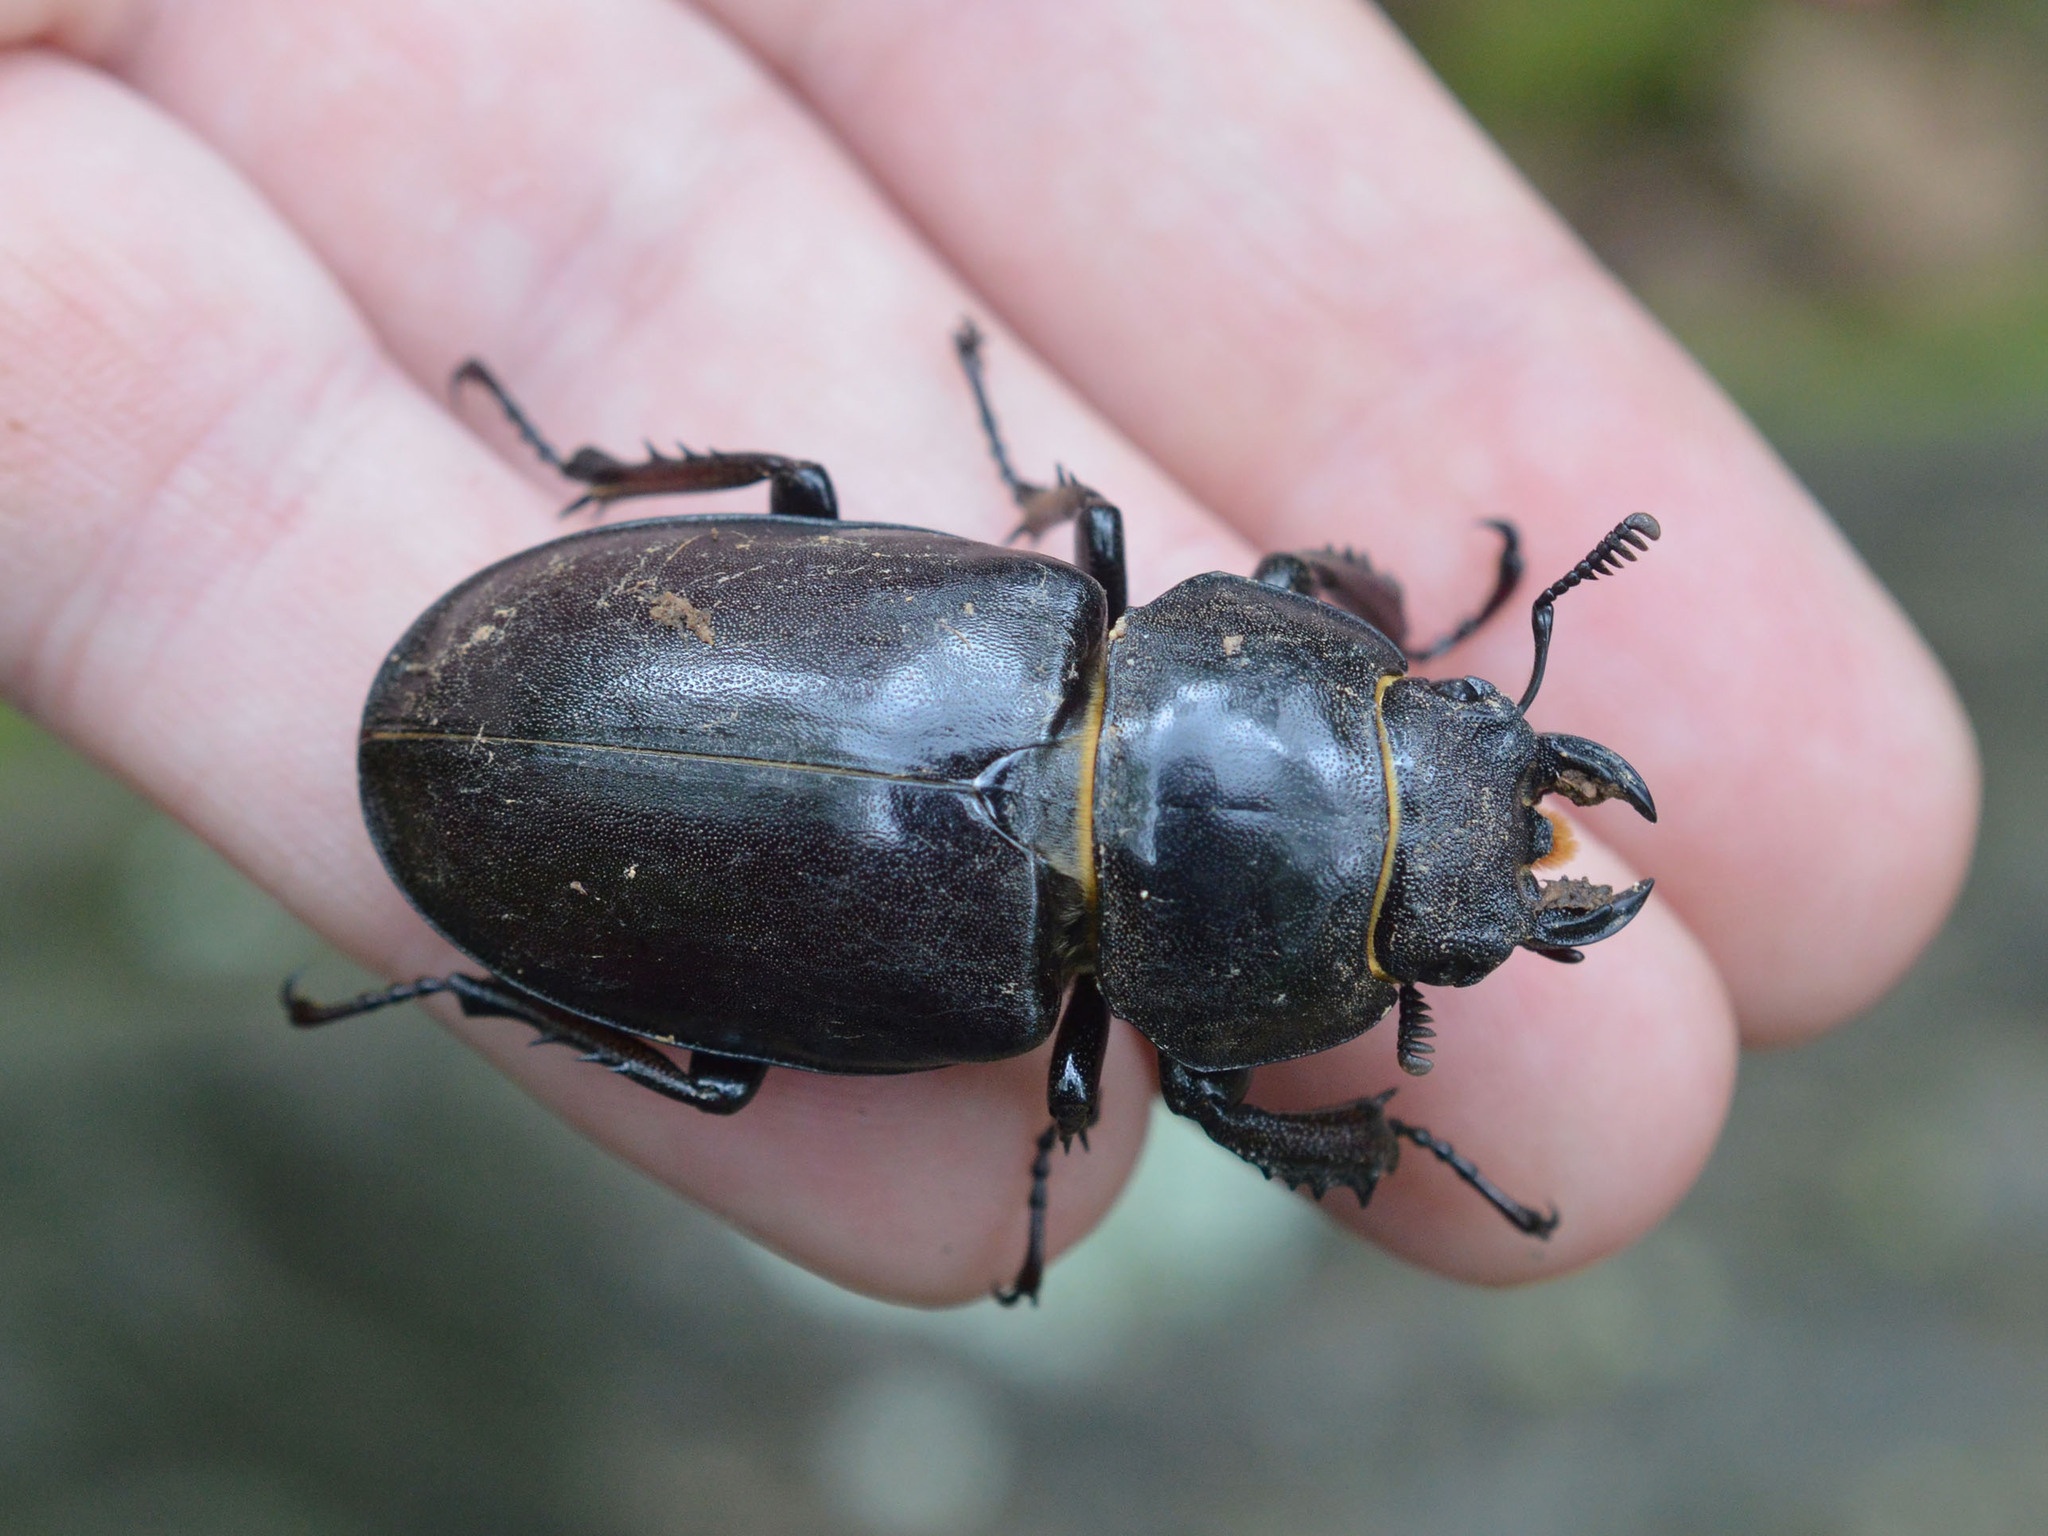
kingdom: Animalia
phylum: Arthropoda
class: Insecta
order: Coleoptera
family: Lucanidae
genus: Lucanus
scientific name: Lucanus cervus
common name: Stag beetle
